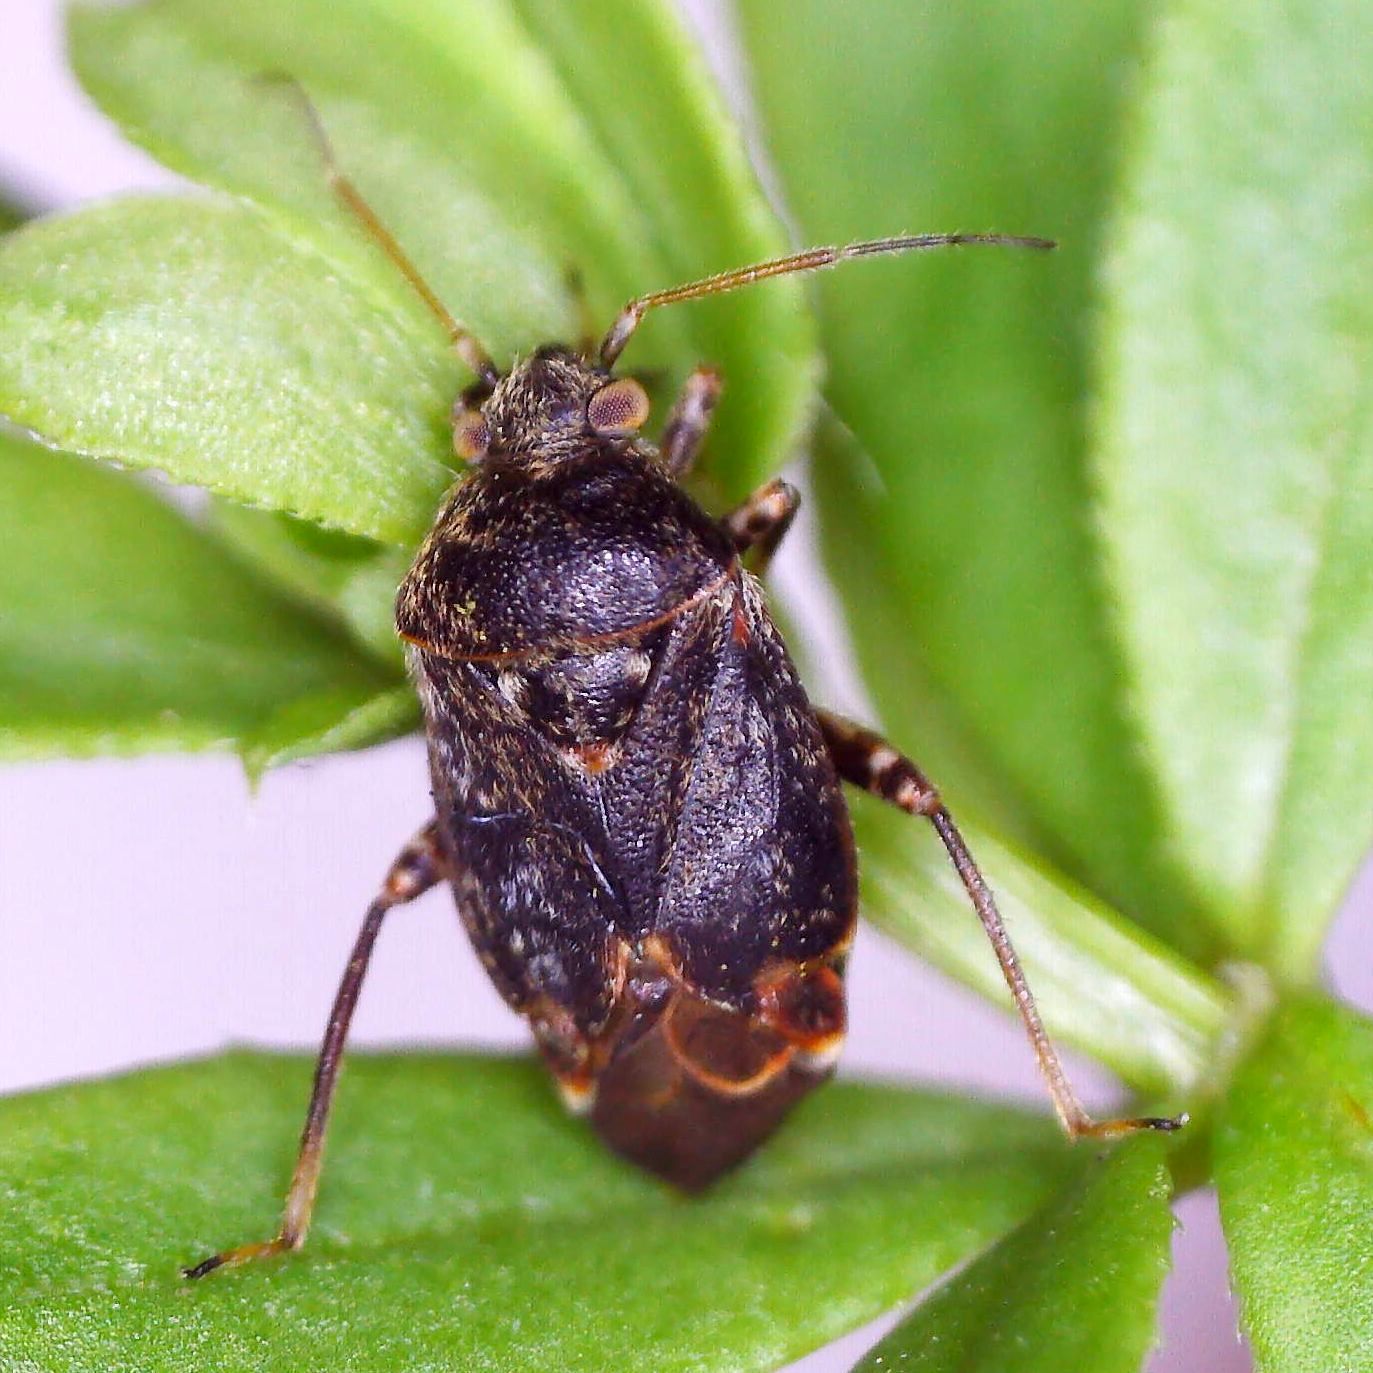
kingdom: Animalia
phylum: Arthropoda
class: Insecta
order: Hemiptera
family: Miridae
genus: Charagochilus
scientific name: Charagochilus gyllenhalii
